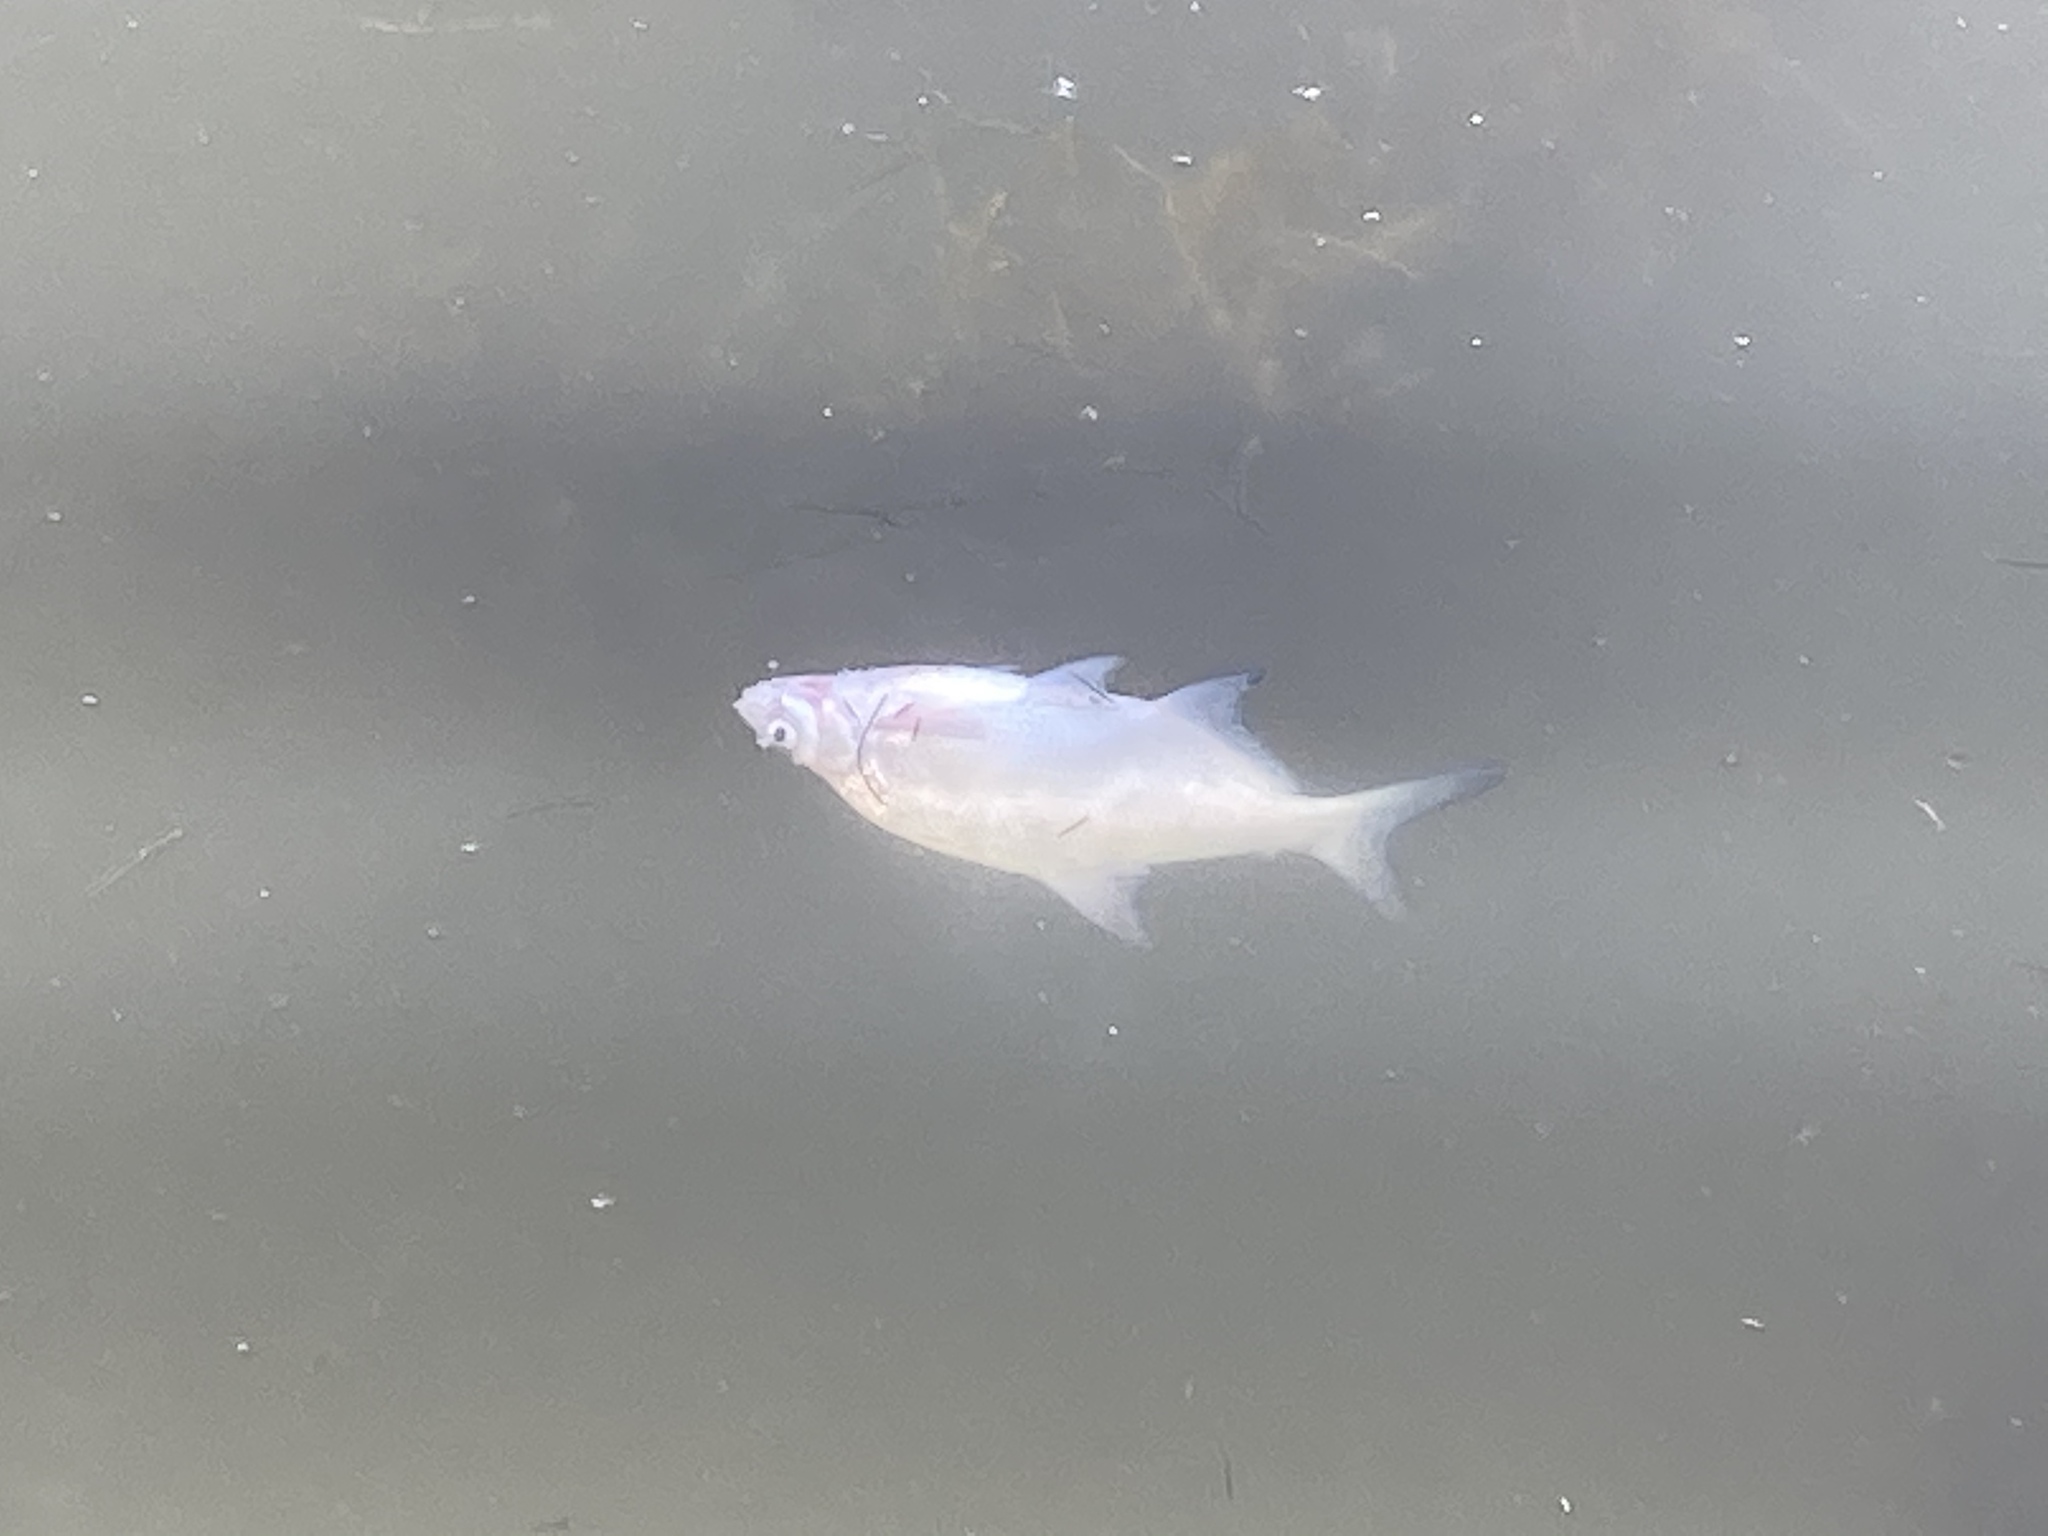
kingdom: Animalia
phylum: Chordata
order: Cypriniformes
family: Cyprinidae
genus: Abramis
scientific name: Abramis brama
